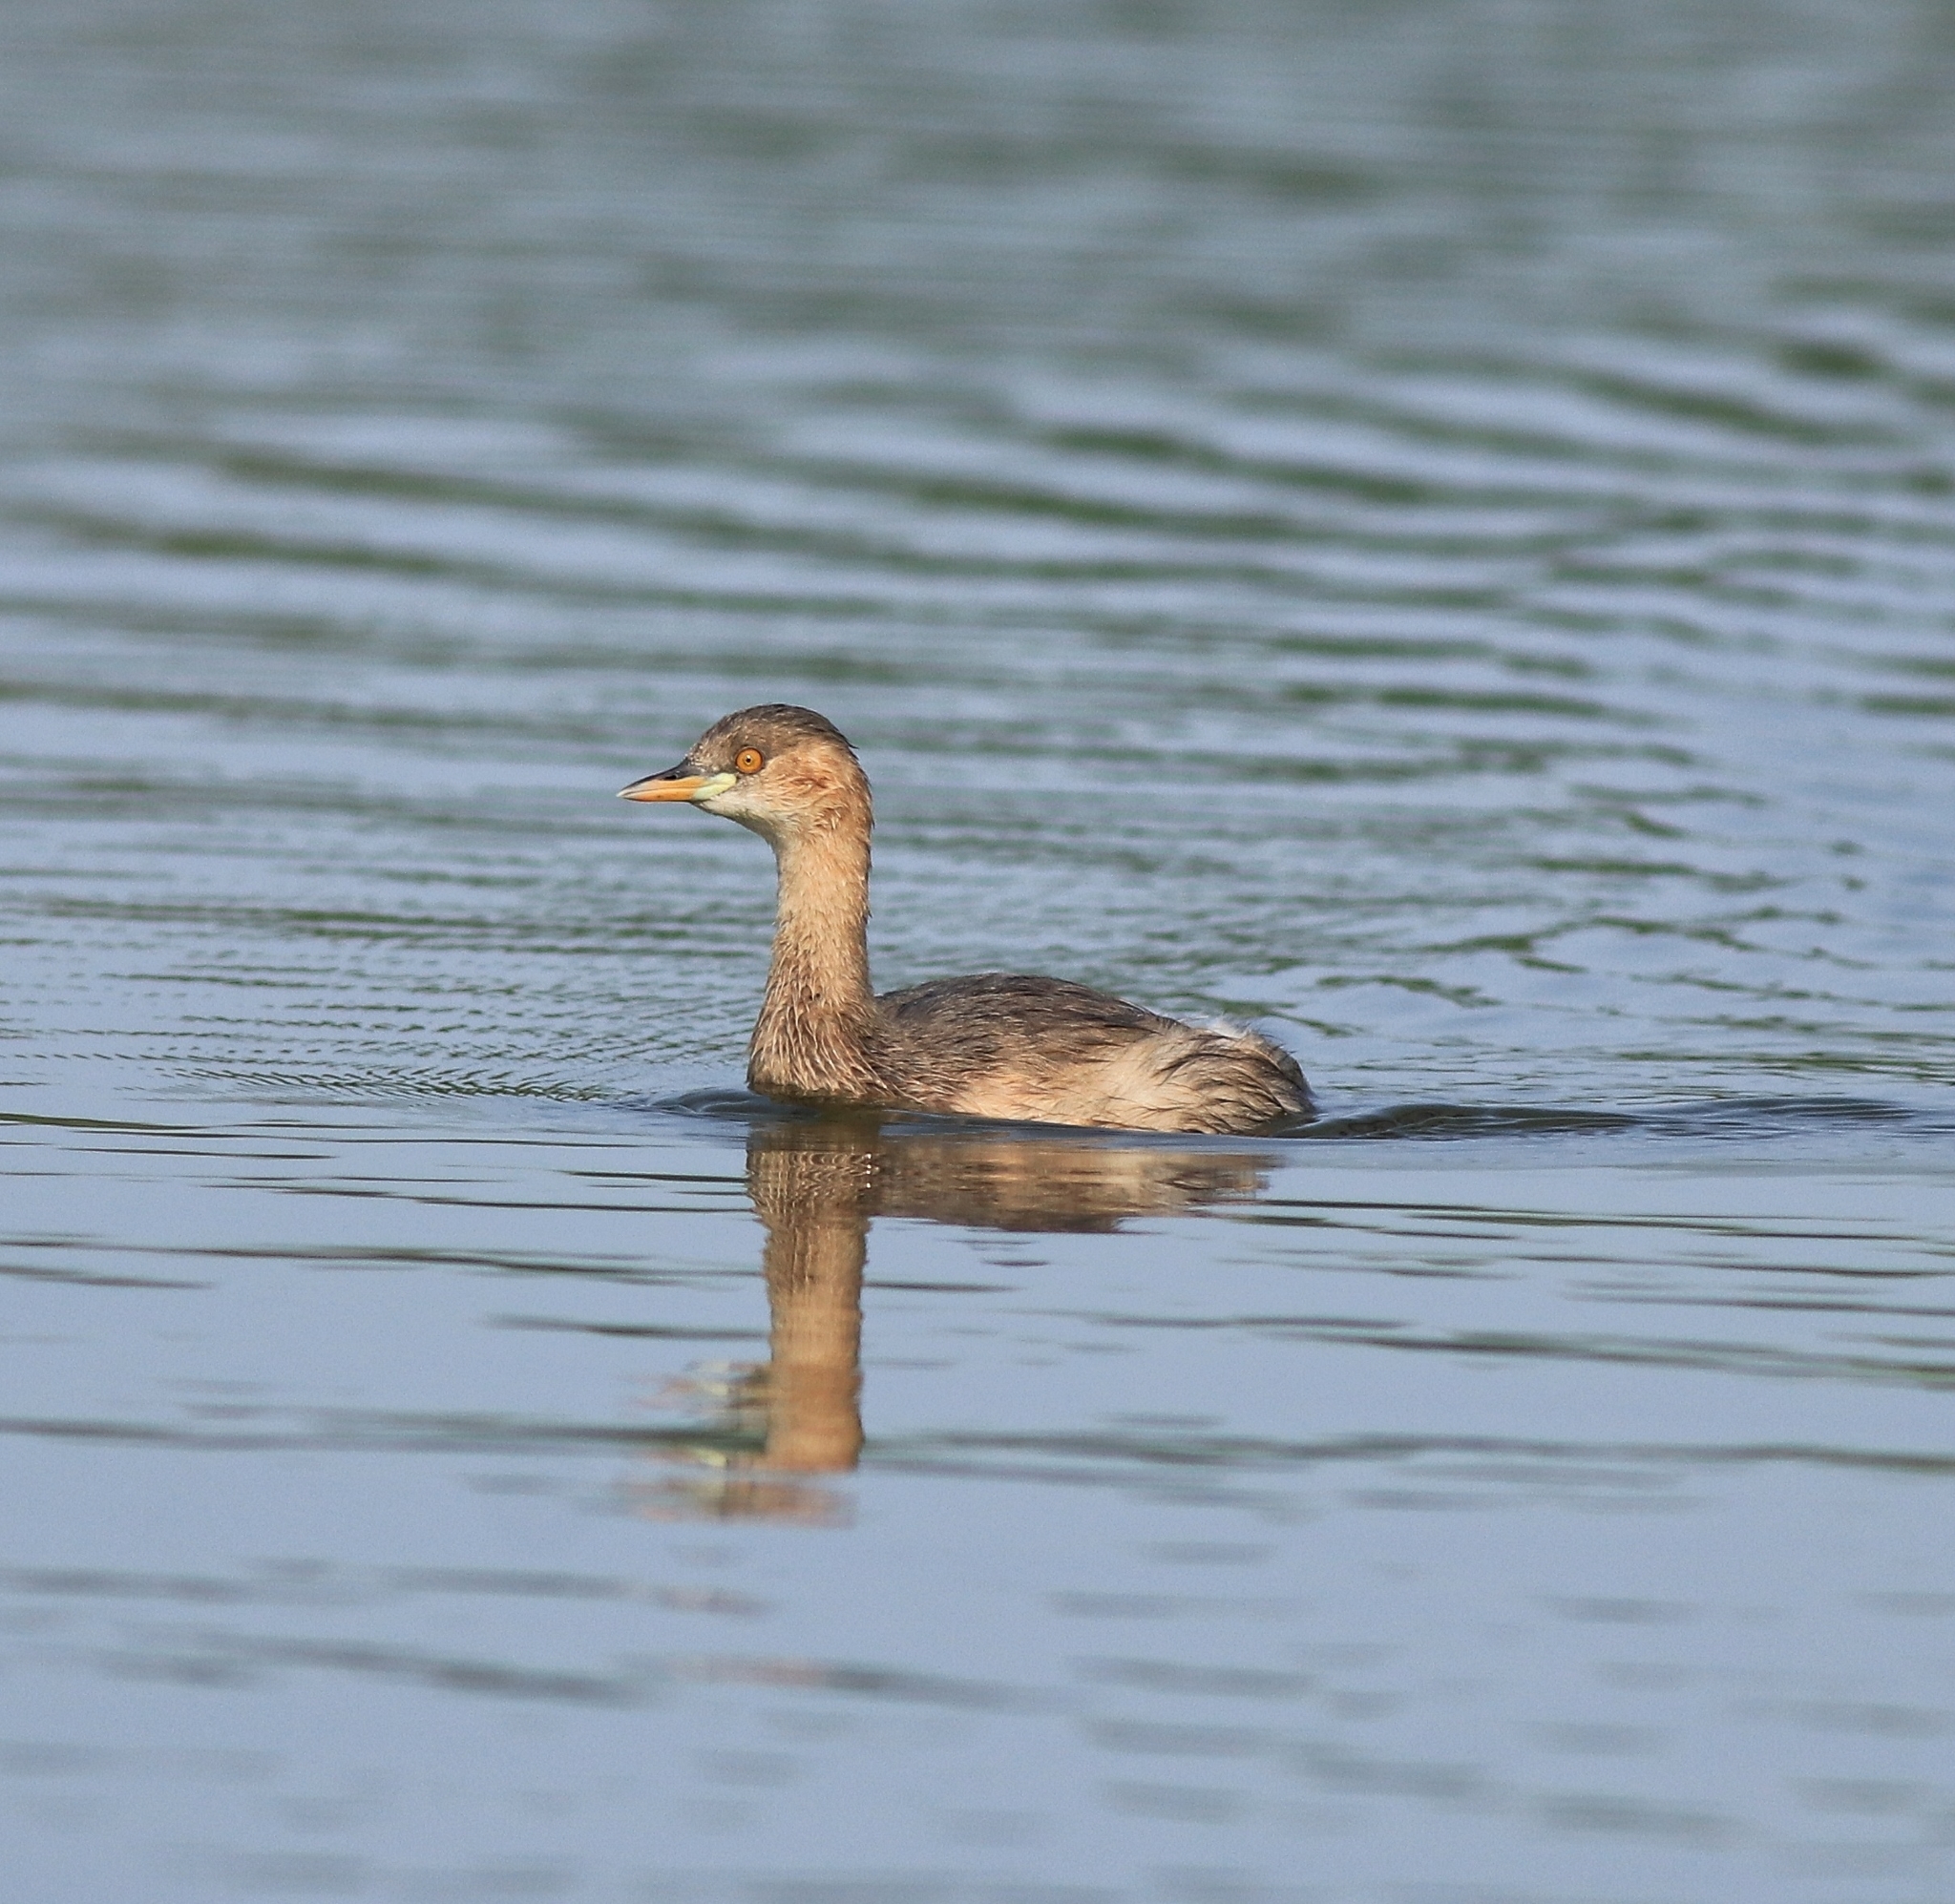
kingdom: Animalia
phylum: Chordata
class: Aves
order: Podicipediformes
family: Podicipedidae
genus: Tachybaptus
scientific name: Tachybaptus ruficollis
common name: Little grebe
